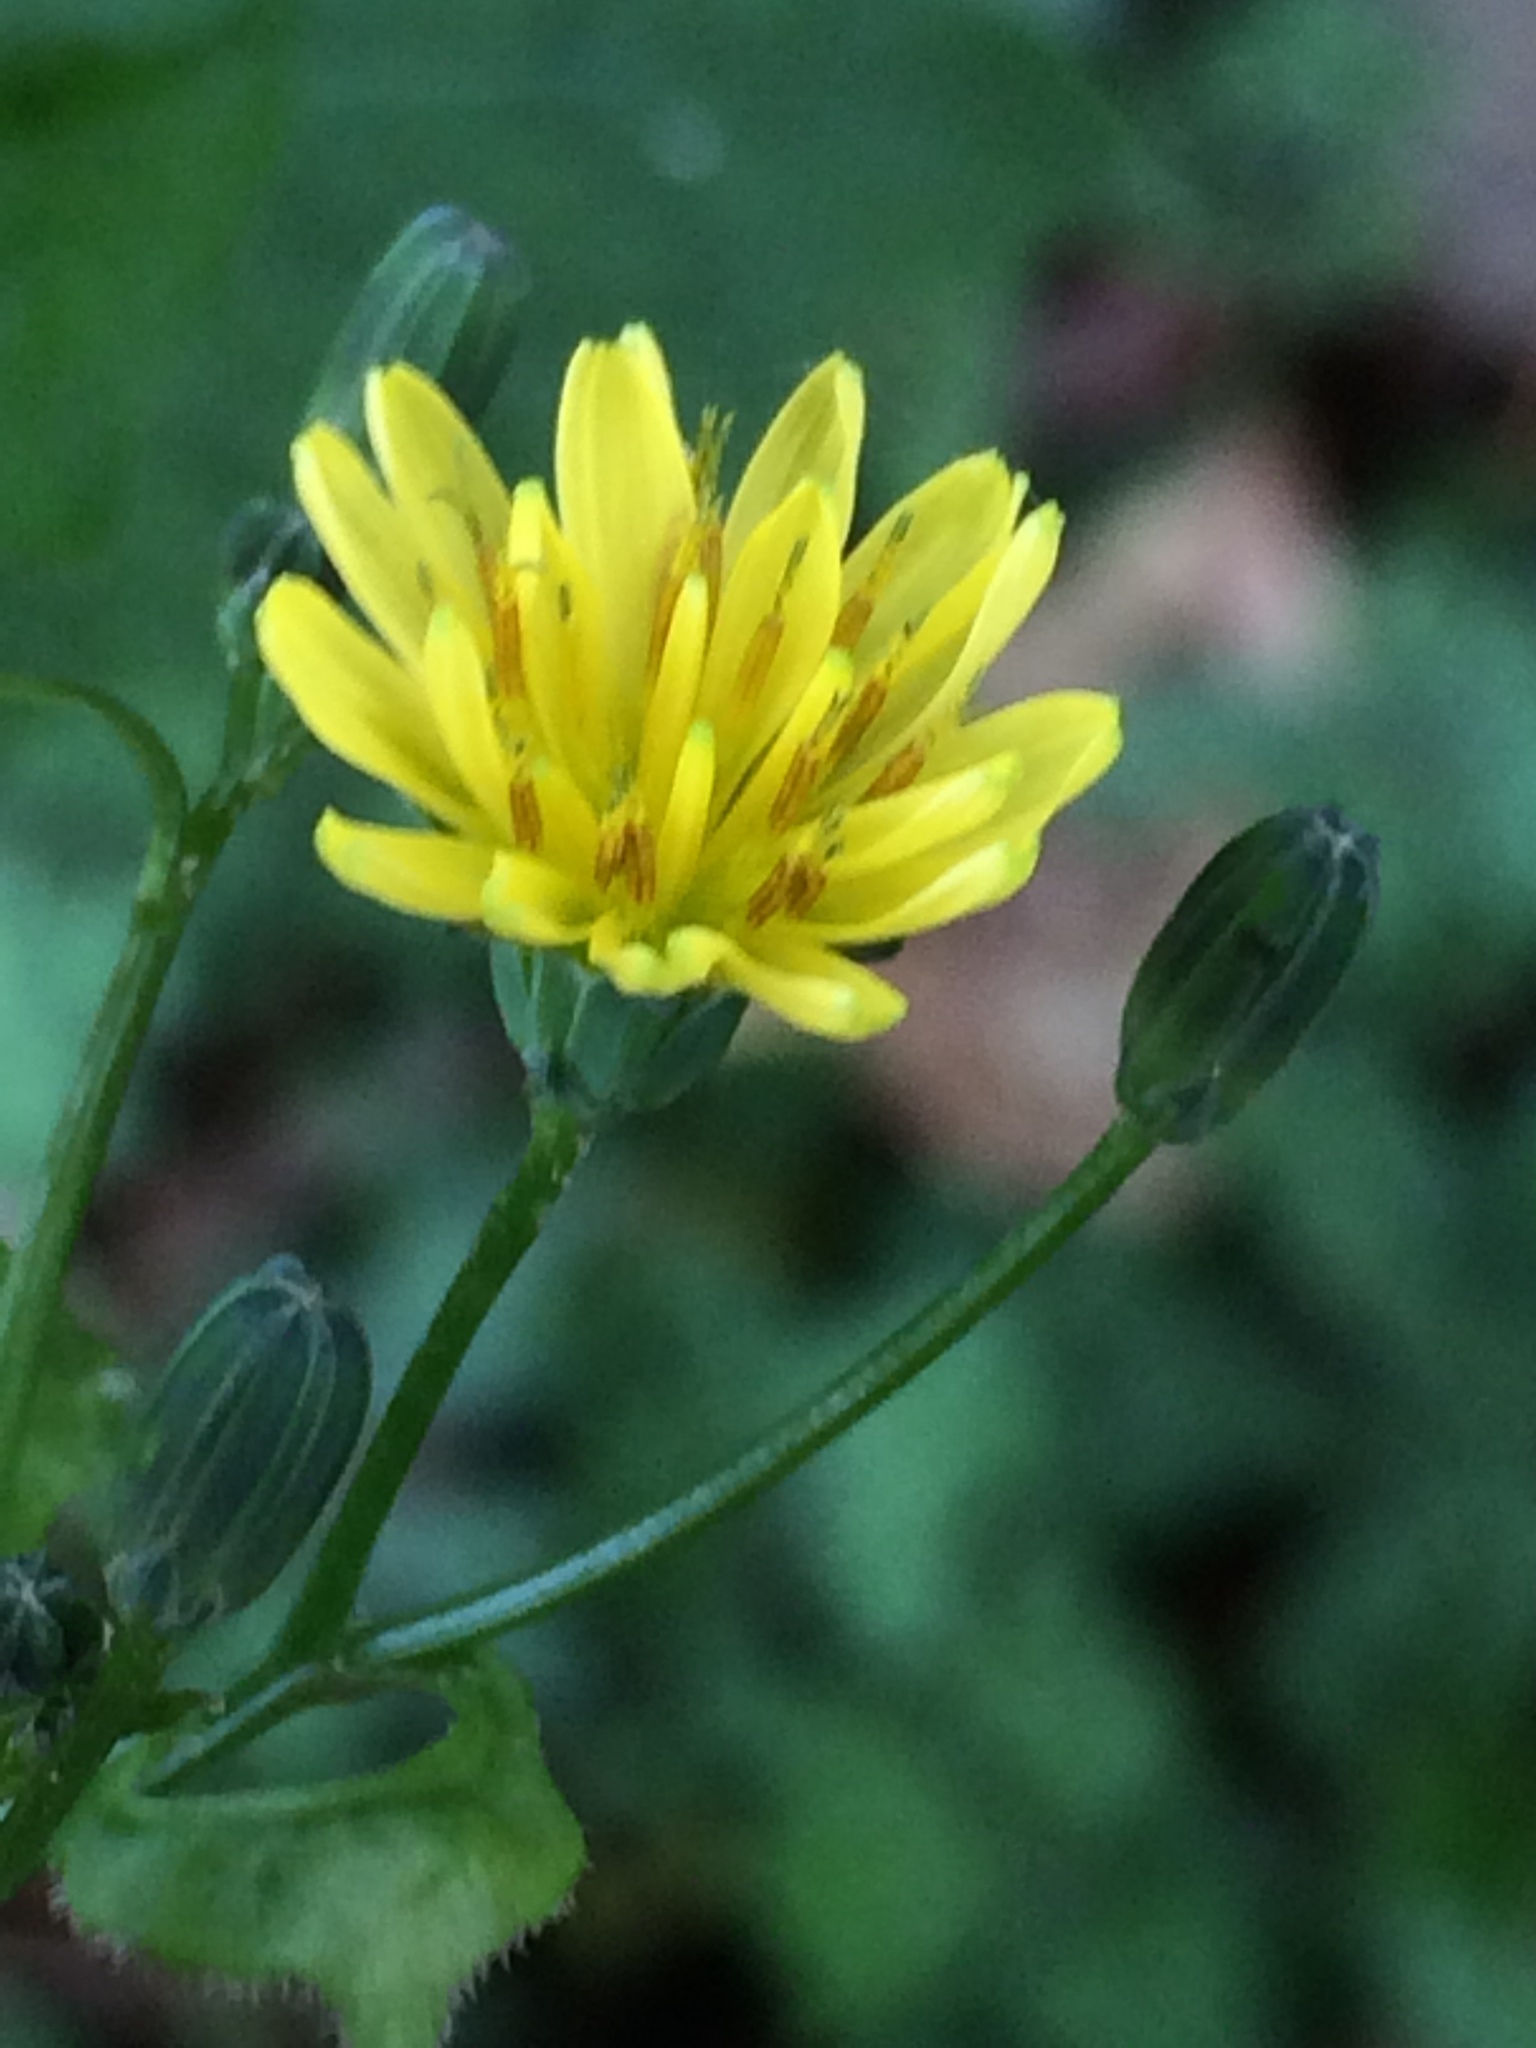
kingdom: Plantae
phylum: Tracheophyta
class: Magnoliopsida
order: Asterales
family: Asteraceae
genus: Lapsana
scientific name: Lapsana communis
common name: Nipplewort
